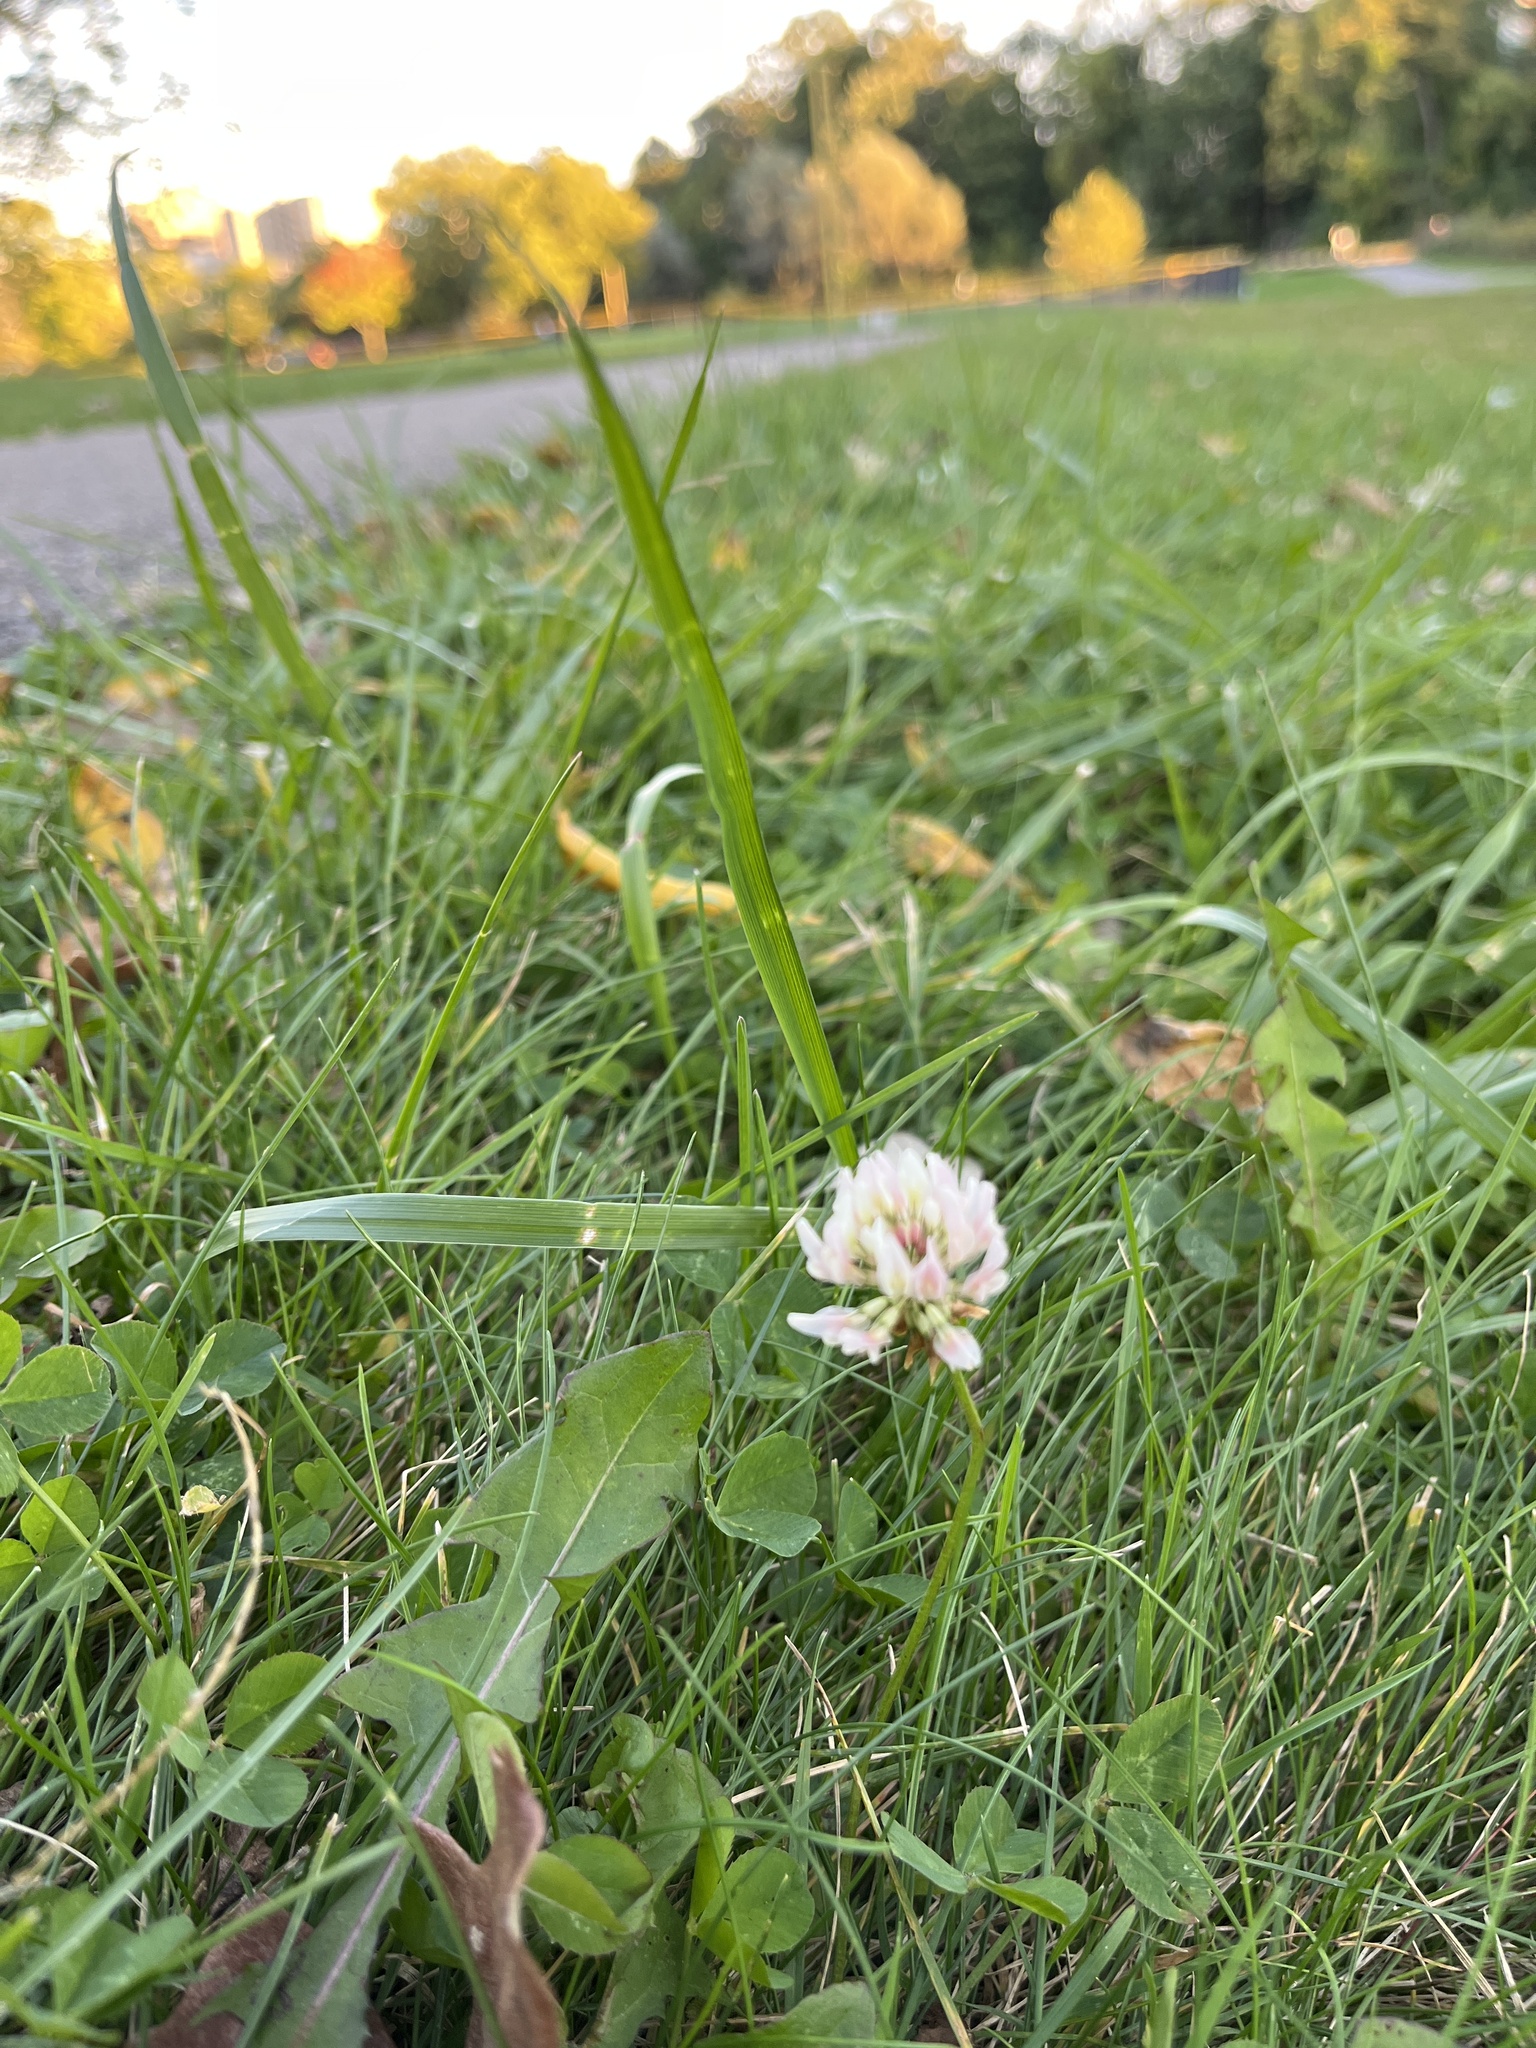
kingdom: Plantae
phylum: Tracheophyta
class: Magnoliopsida
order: Fabales
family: Fabaceae
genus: Trifolium
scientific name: Trifolium repens
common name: White clover
